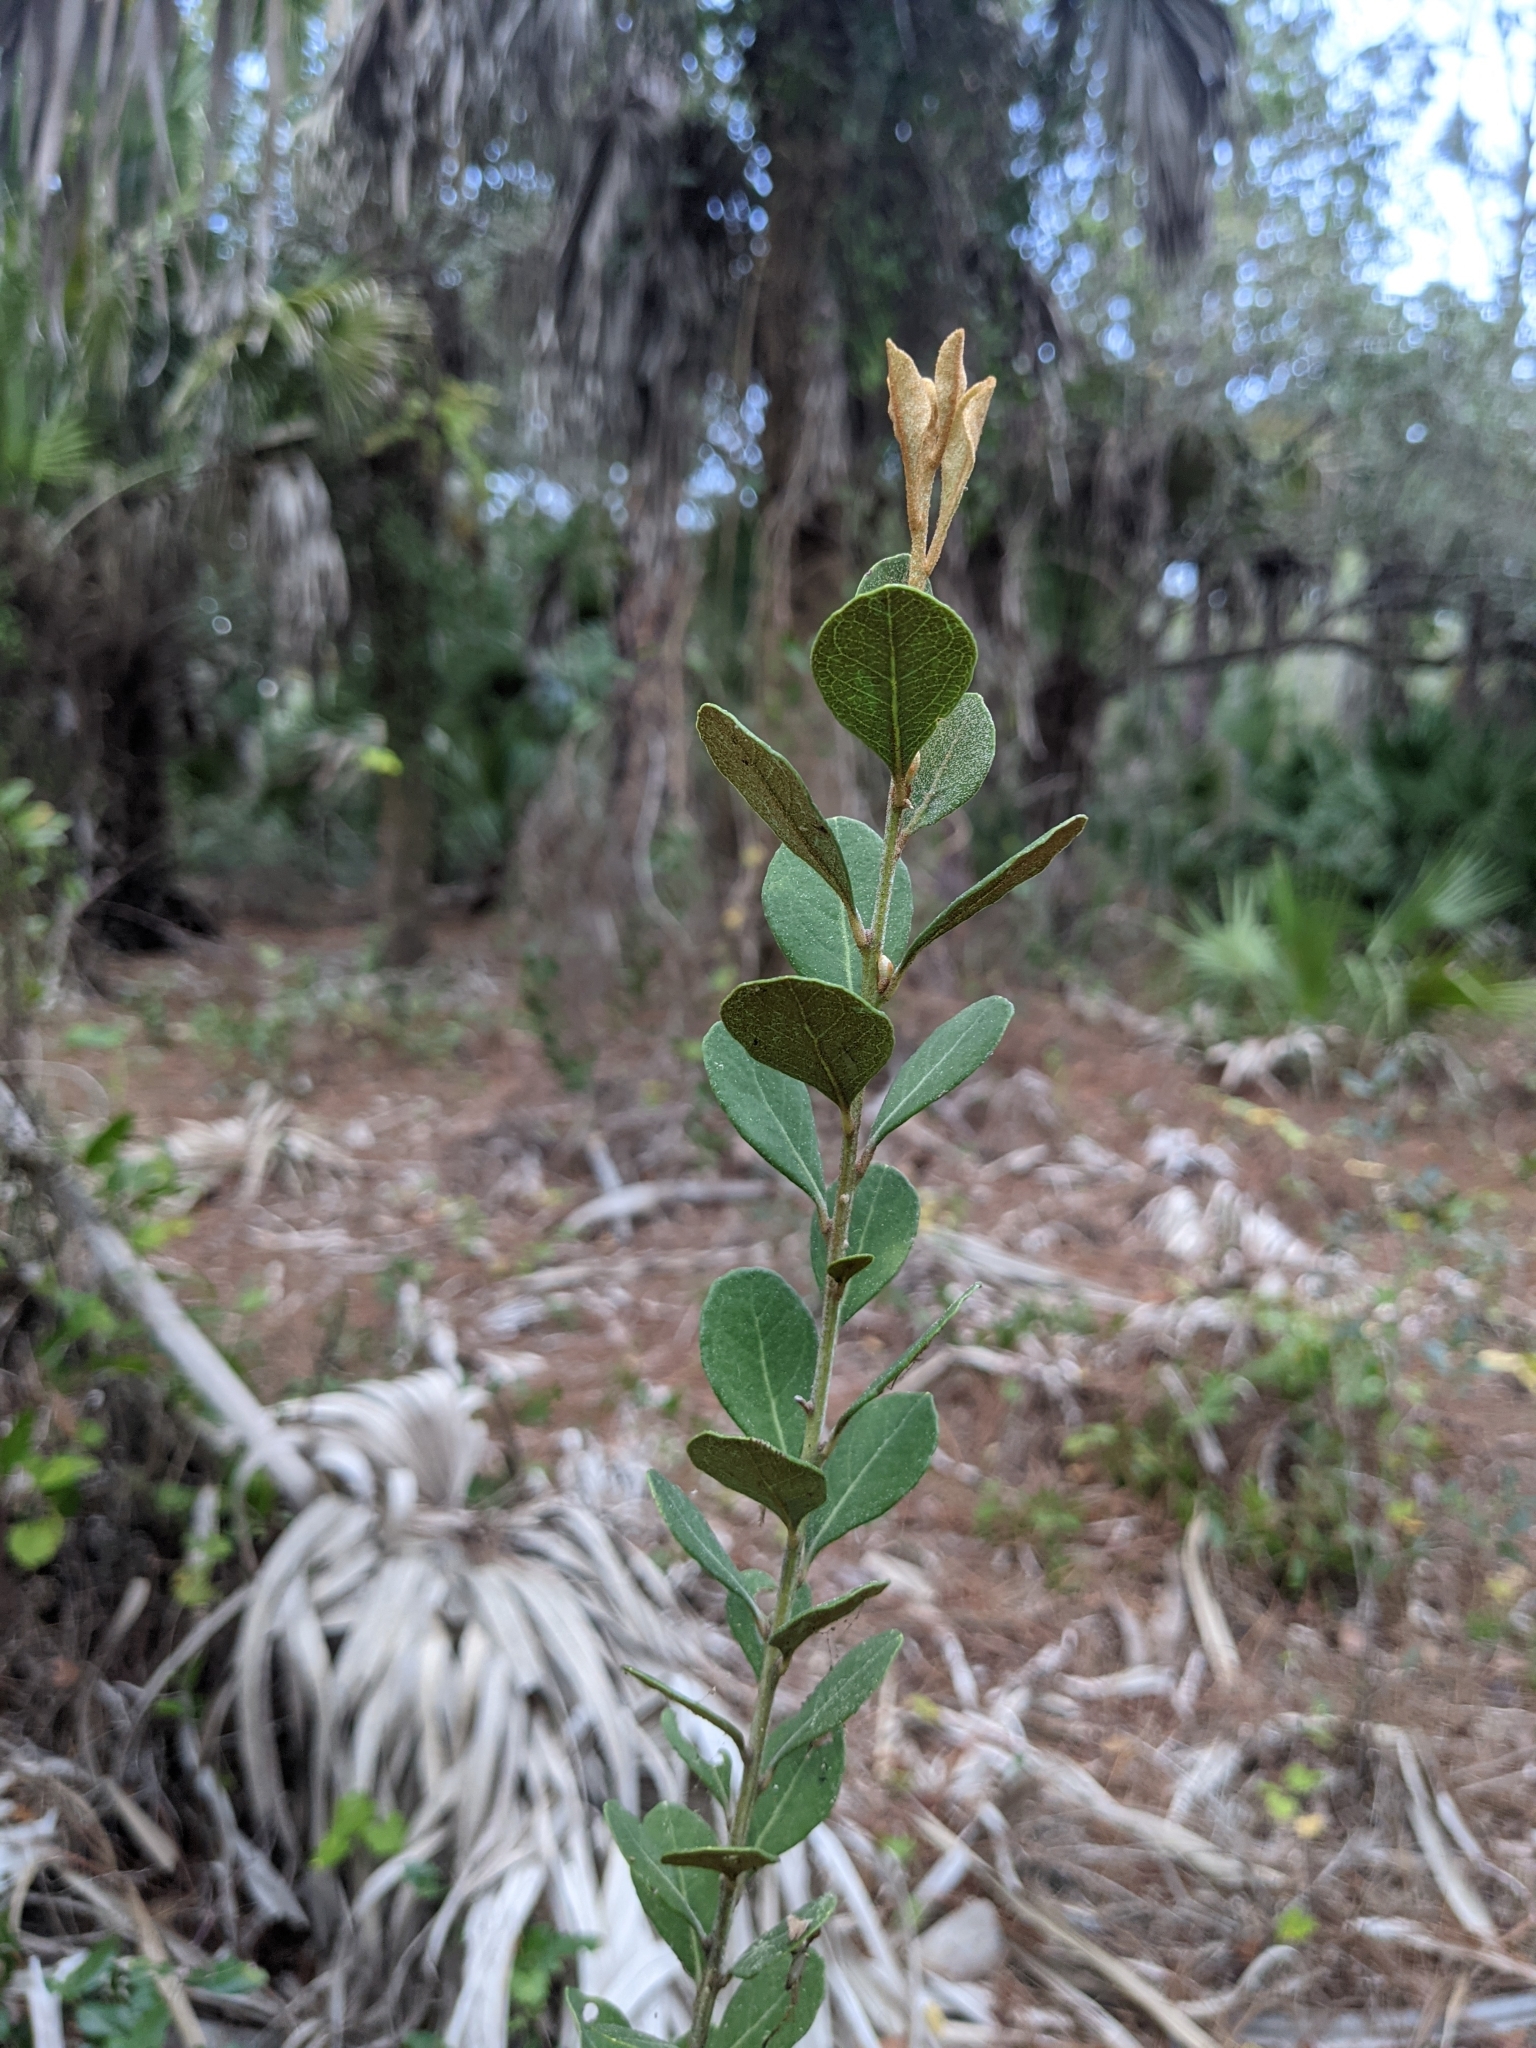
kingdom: Plantae
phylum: Tracheophyta
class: Magnoliopsida
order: Ericales
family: Ericaceae
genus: Lyonia
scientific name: Lyonia fruticosa
